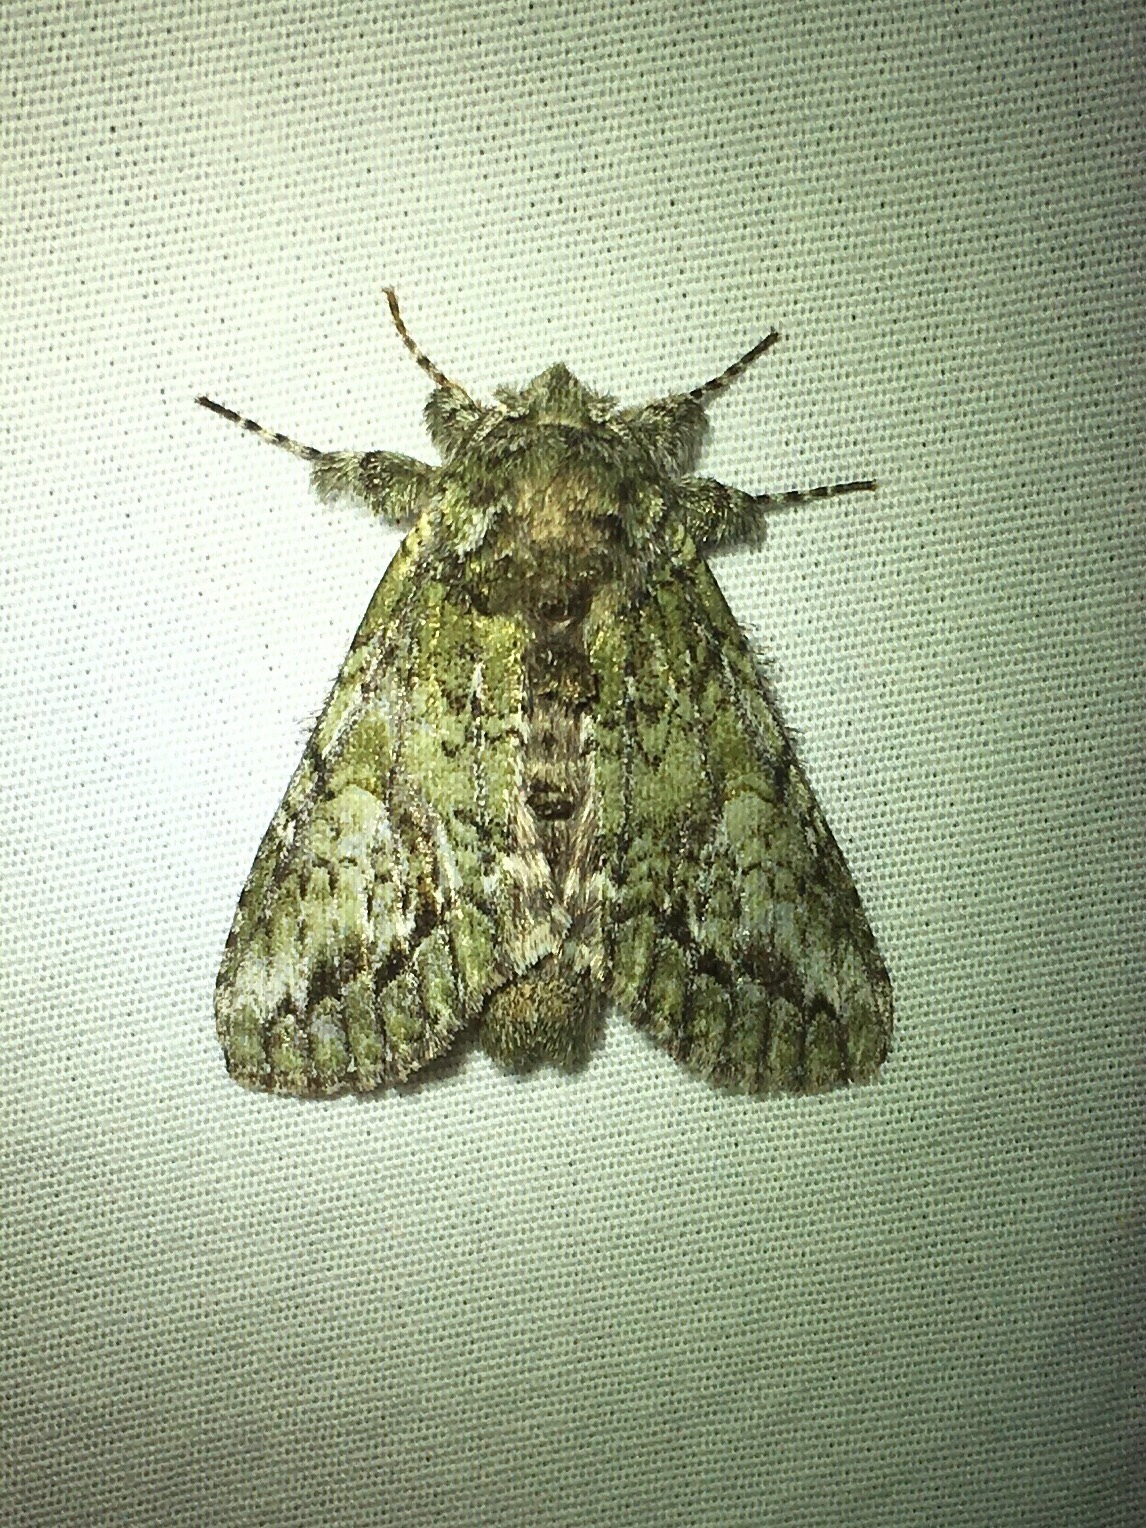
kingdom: Animalia
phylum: Arthropoda
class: Insecta
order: Lepidoptera
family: Notodontidae
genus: Heterocampa
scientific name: Heterocampa
